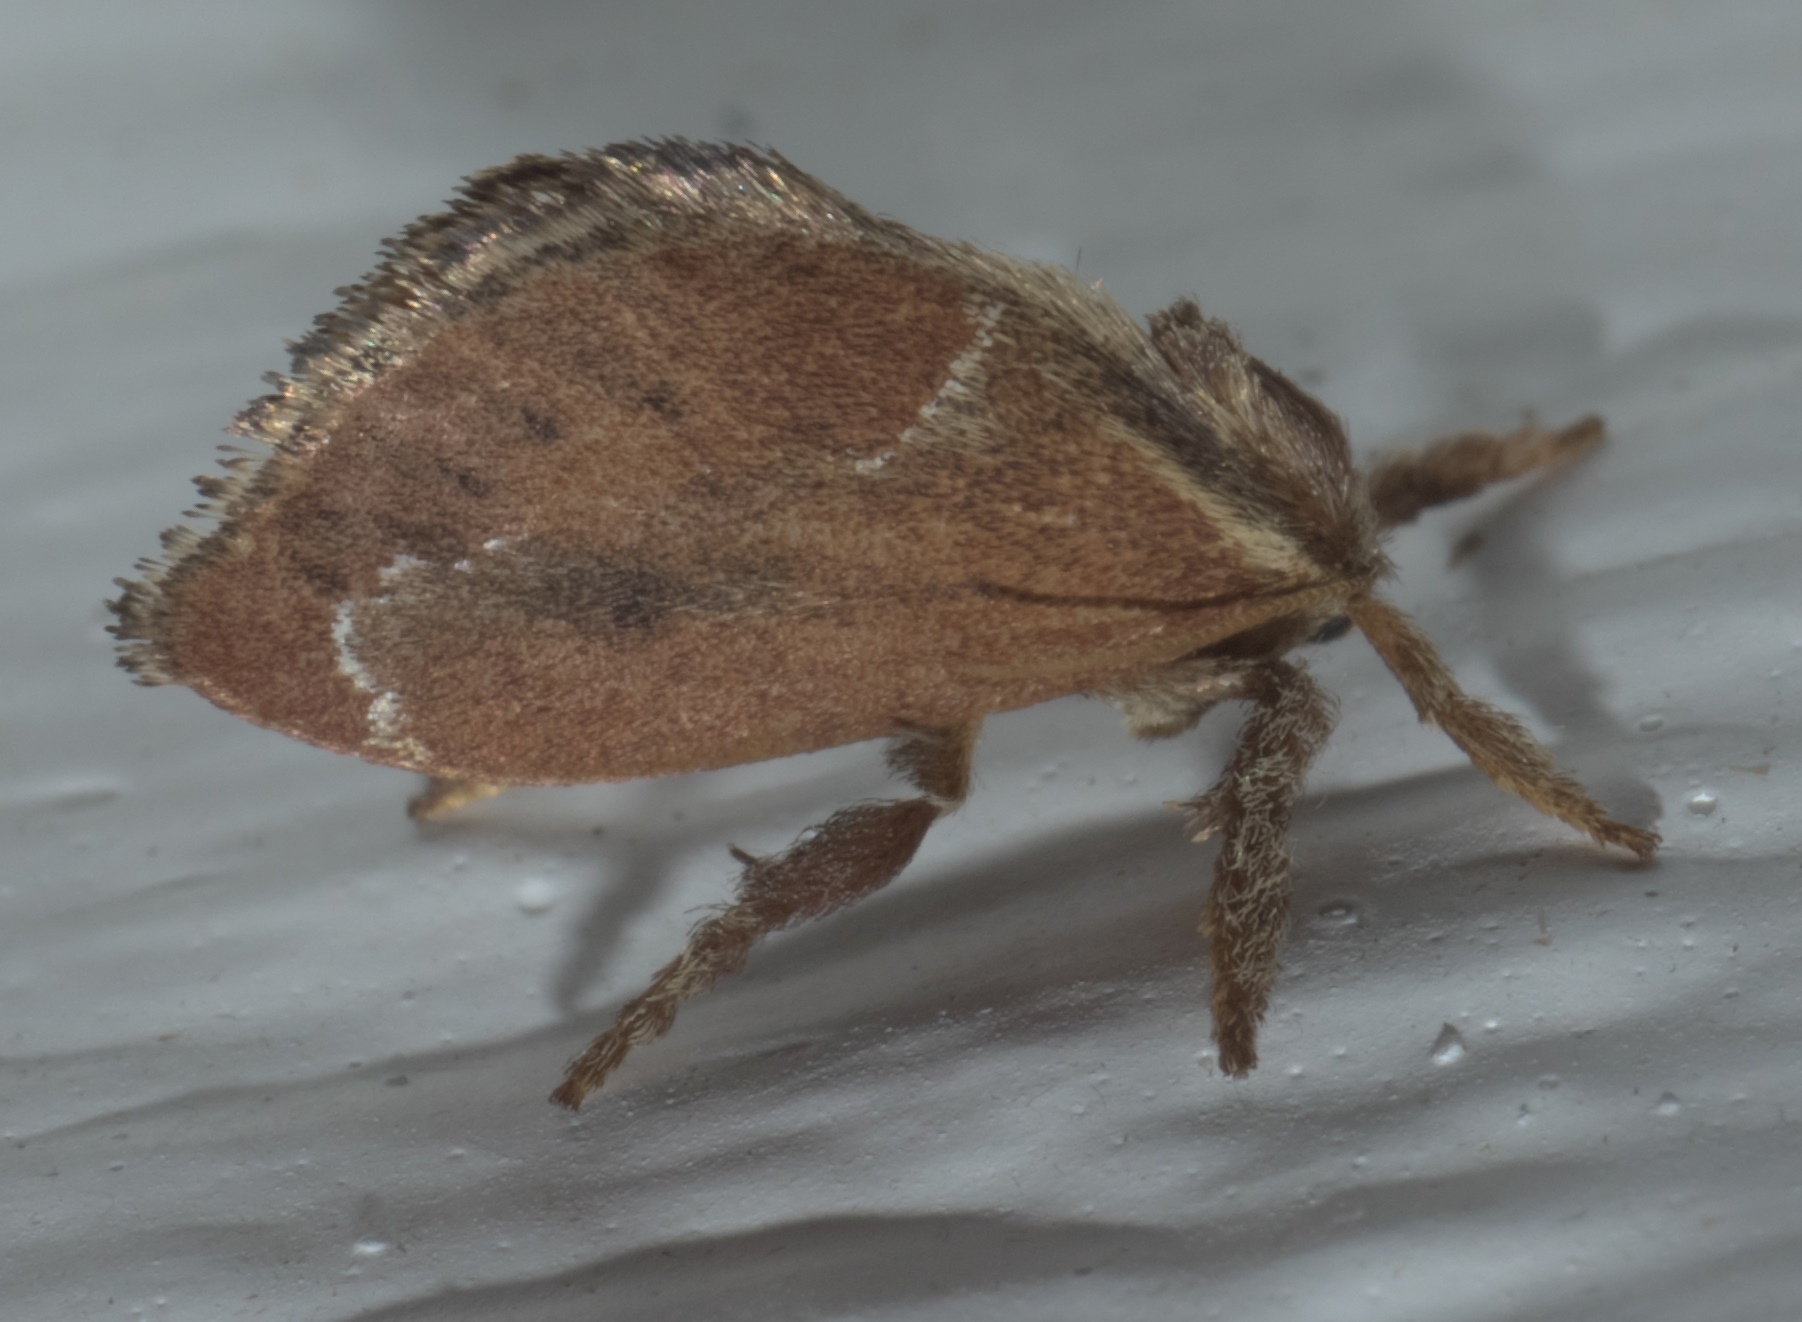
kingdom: Animalia
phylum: Arthropoda
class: Insecta
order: Lepidoptera
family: Limacodidae
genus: Adoneta
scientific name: Adoneta spinuloides
